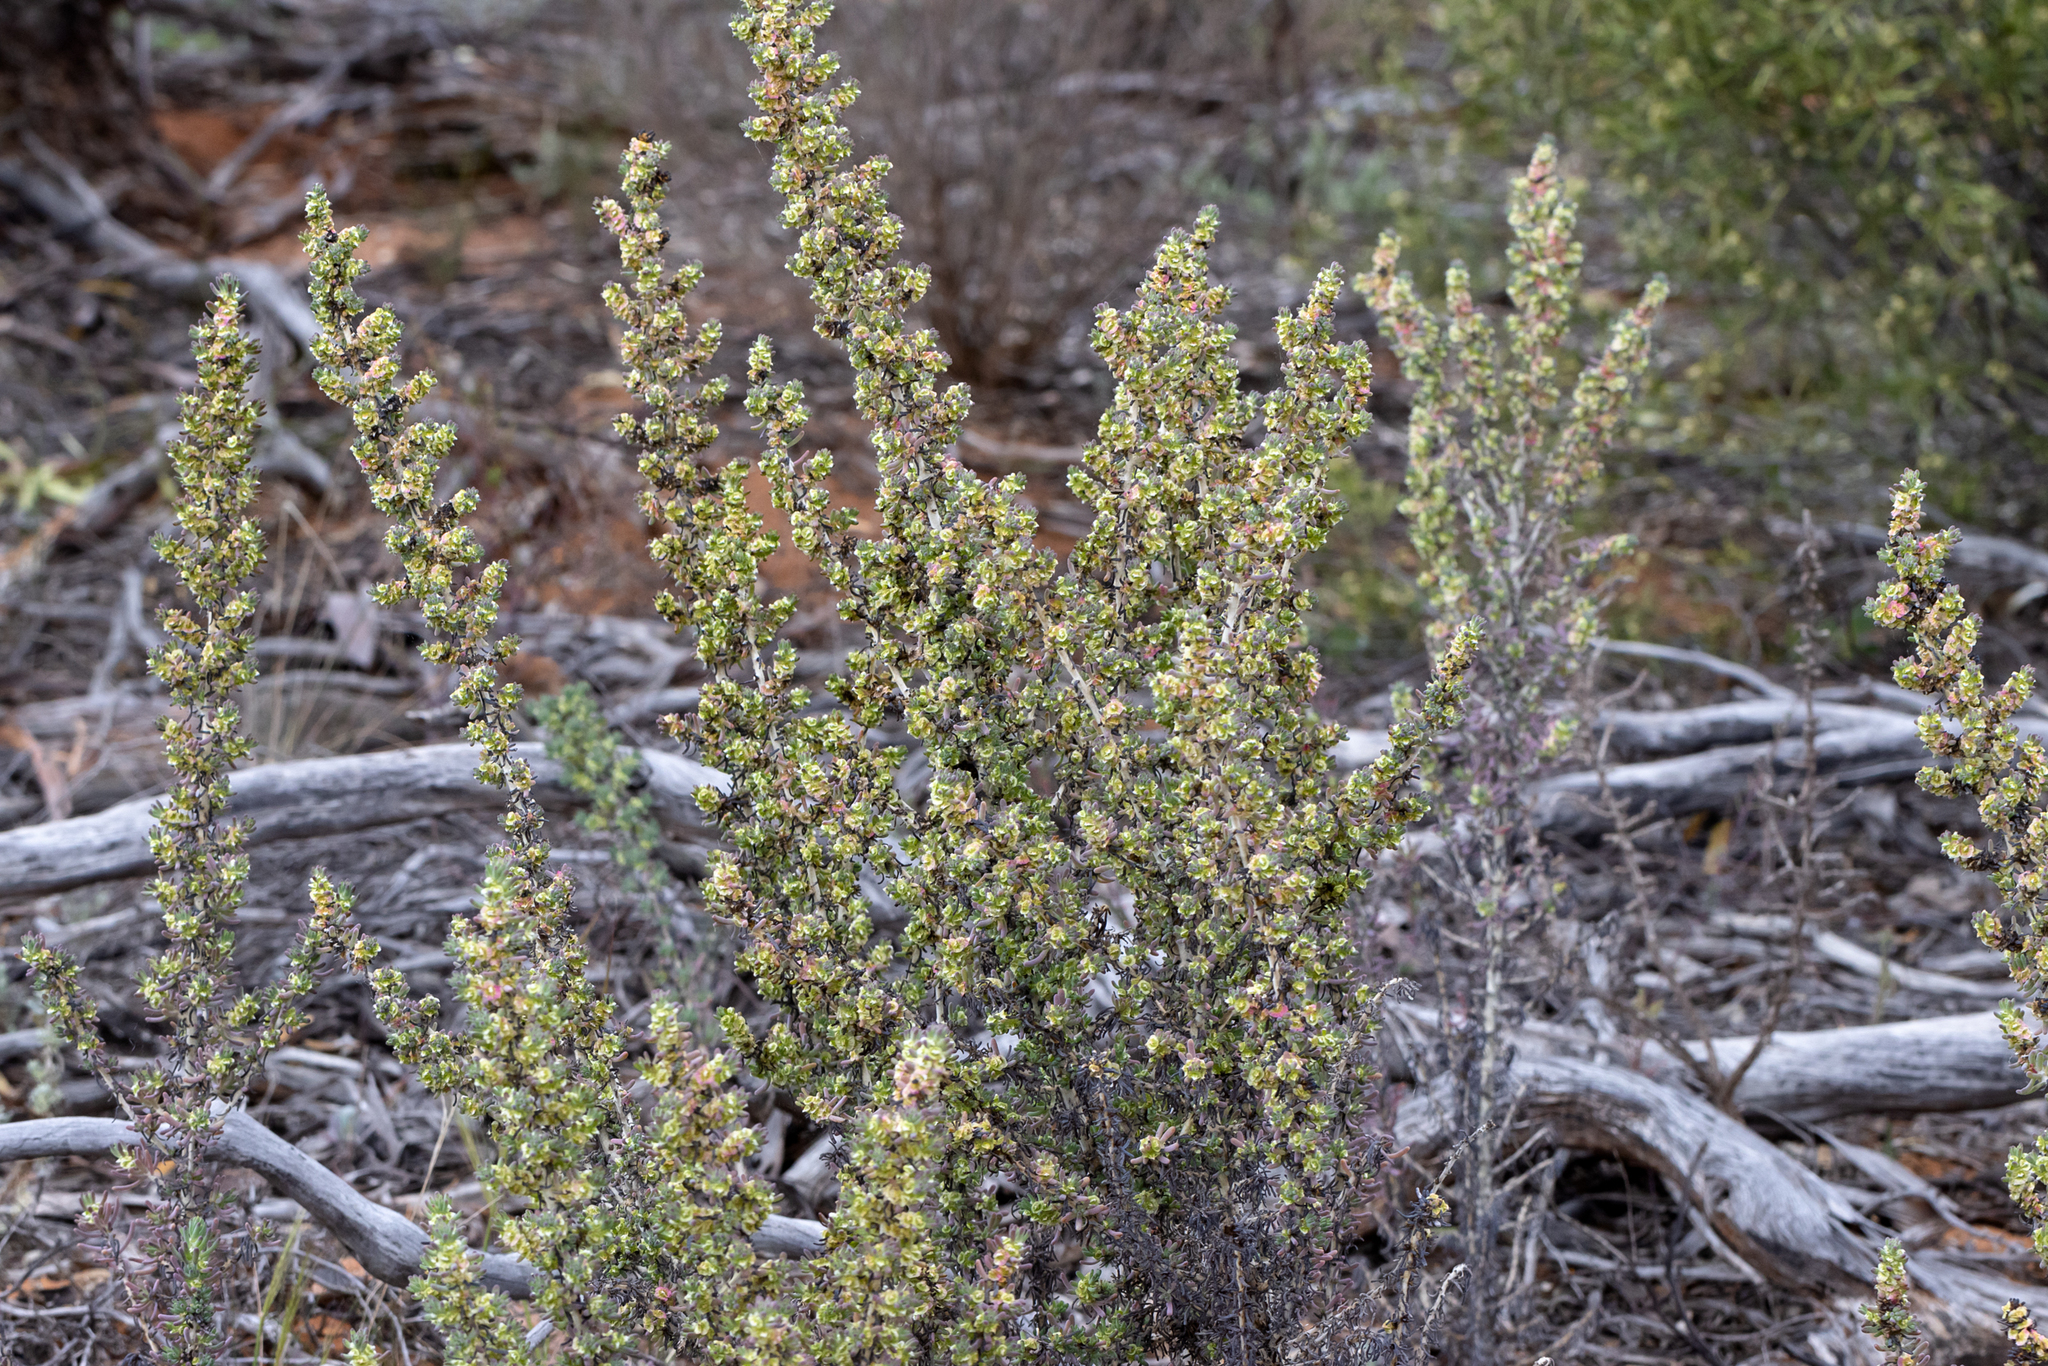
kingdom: Plantae
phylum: Tracheophyta
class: Magnoliopsida
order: Caryophyllales
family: Amaranthaceae
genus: Maireana
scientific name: Maireana pentatropis
